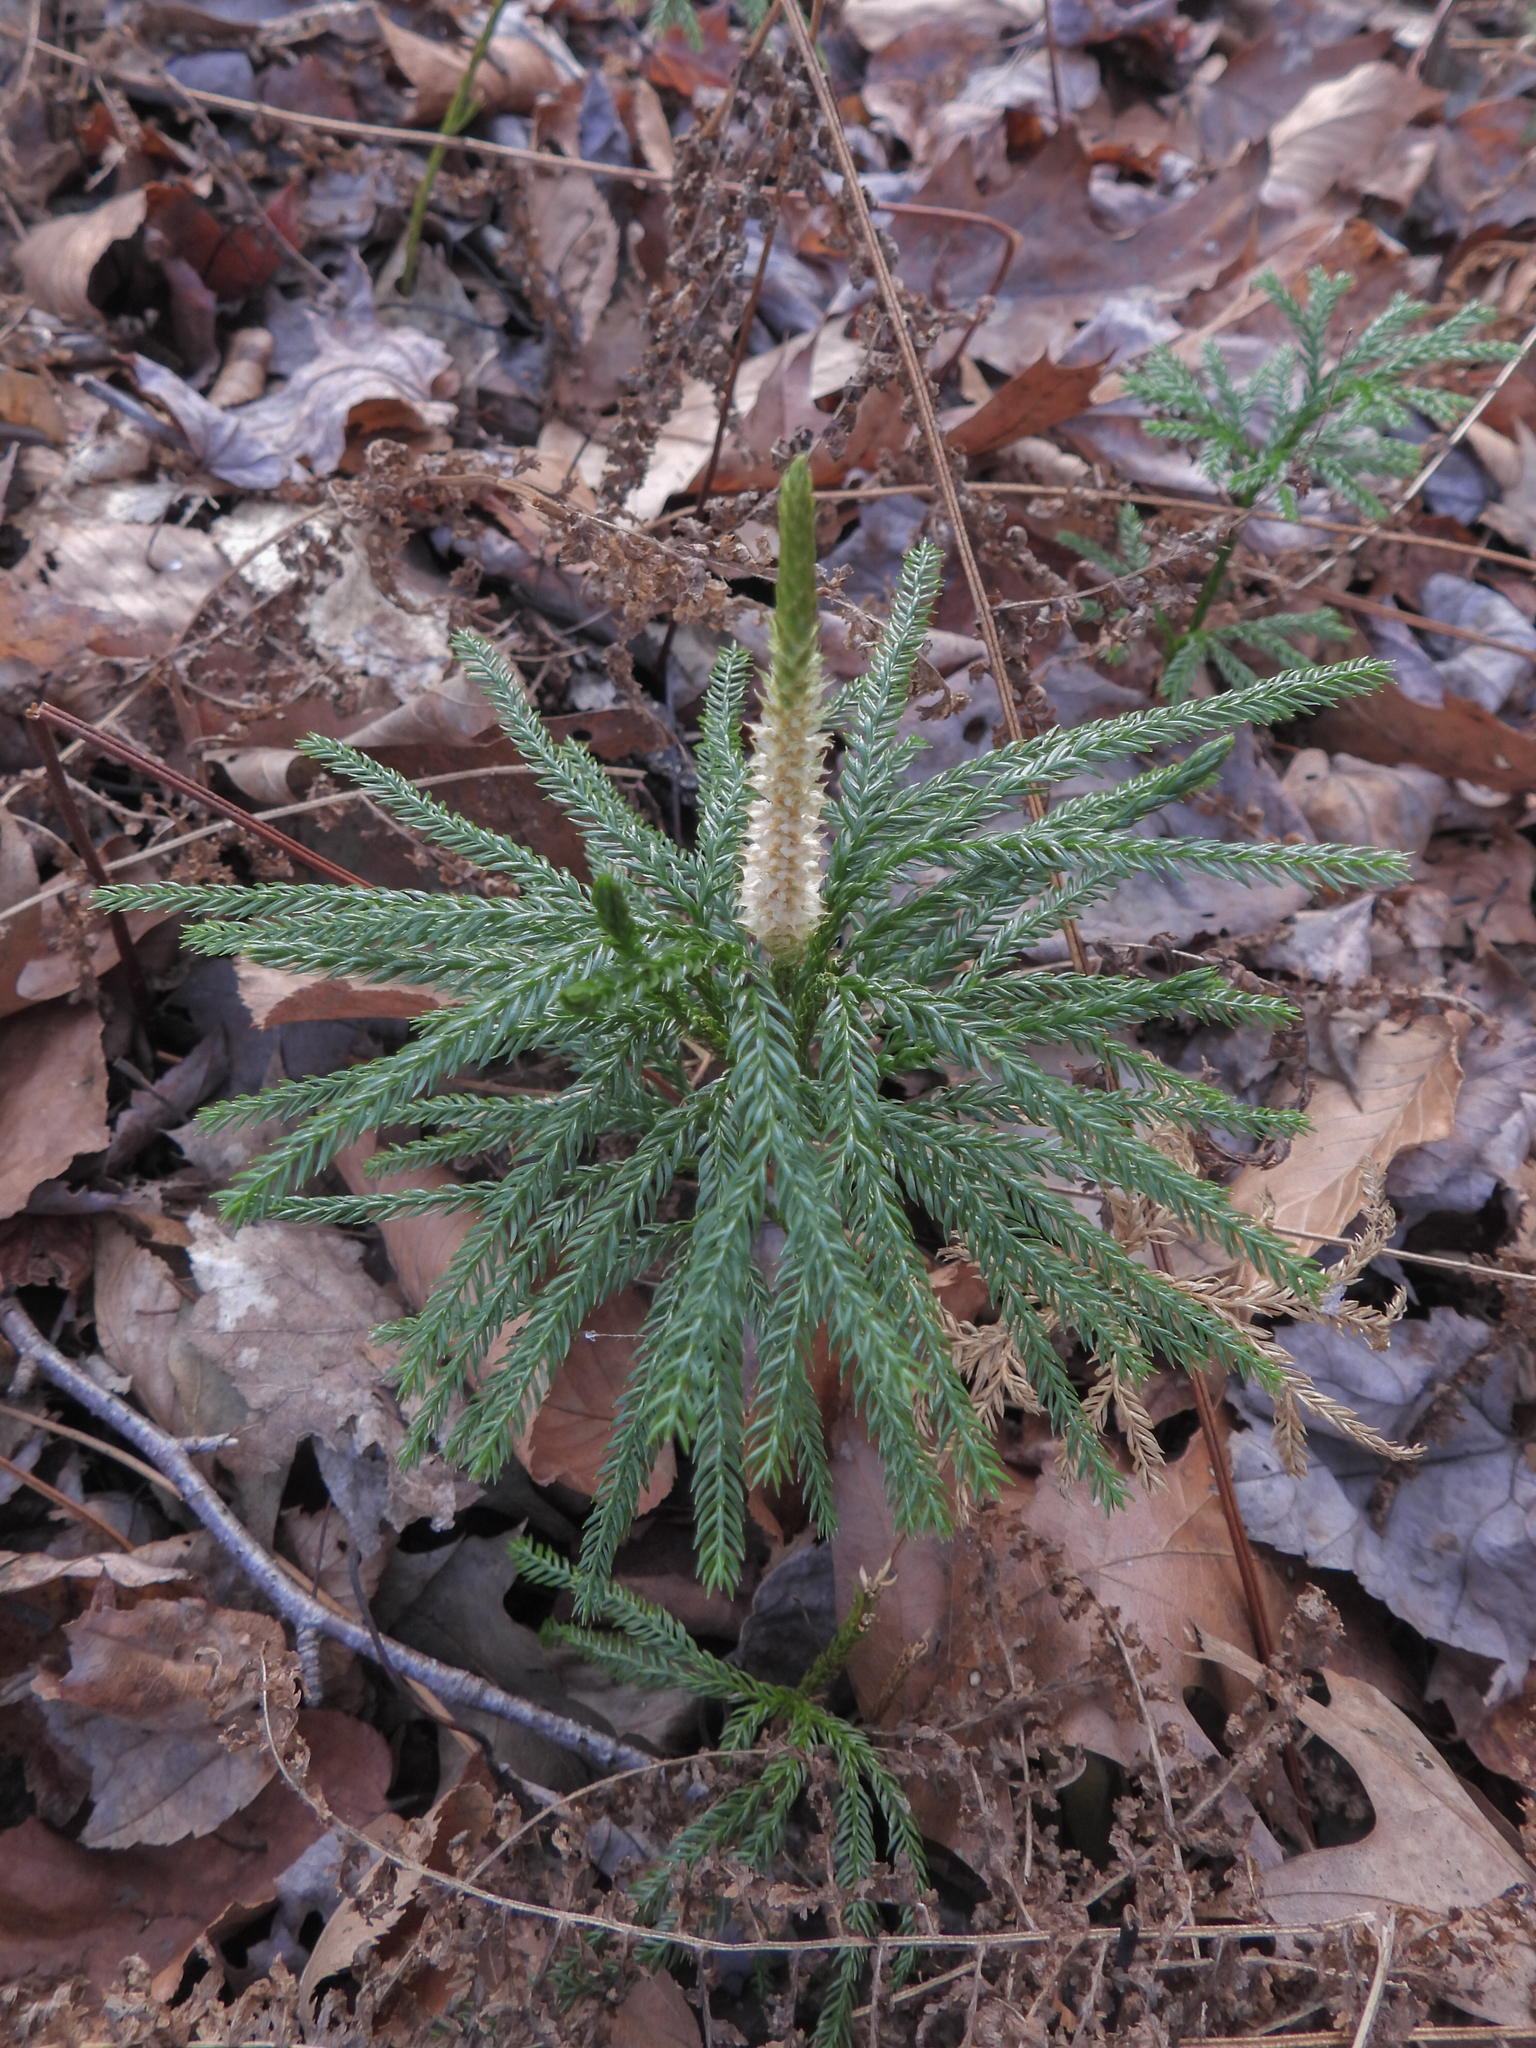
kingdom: Plantae
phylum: Tracheophyta
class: Lycopodiopsida
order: Lycopodiales
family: Lycopodiaceae
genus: Dendrolycopodium
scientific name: Dendrolycopodium obscurum
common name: Common ground-pine
